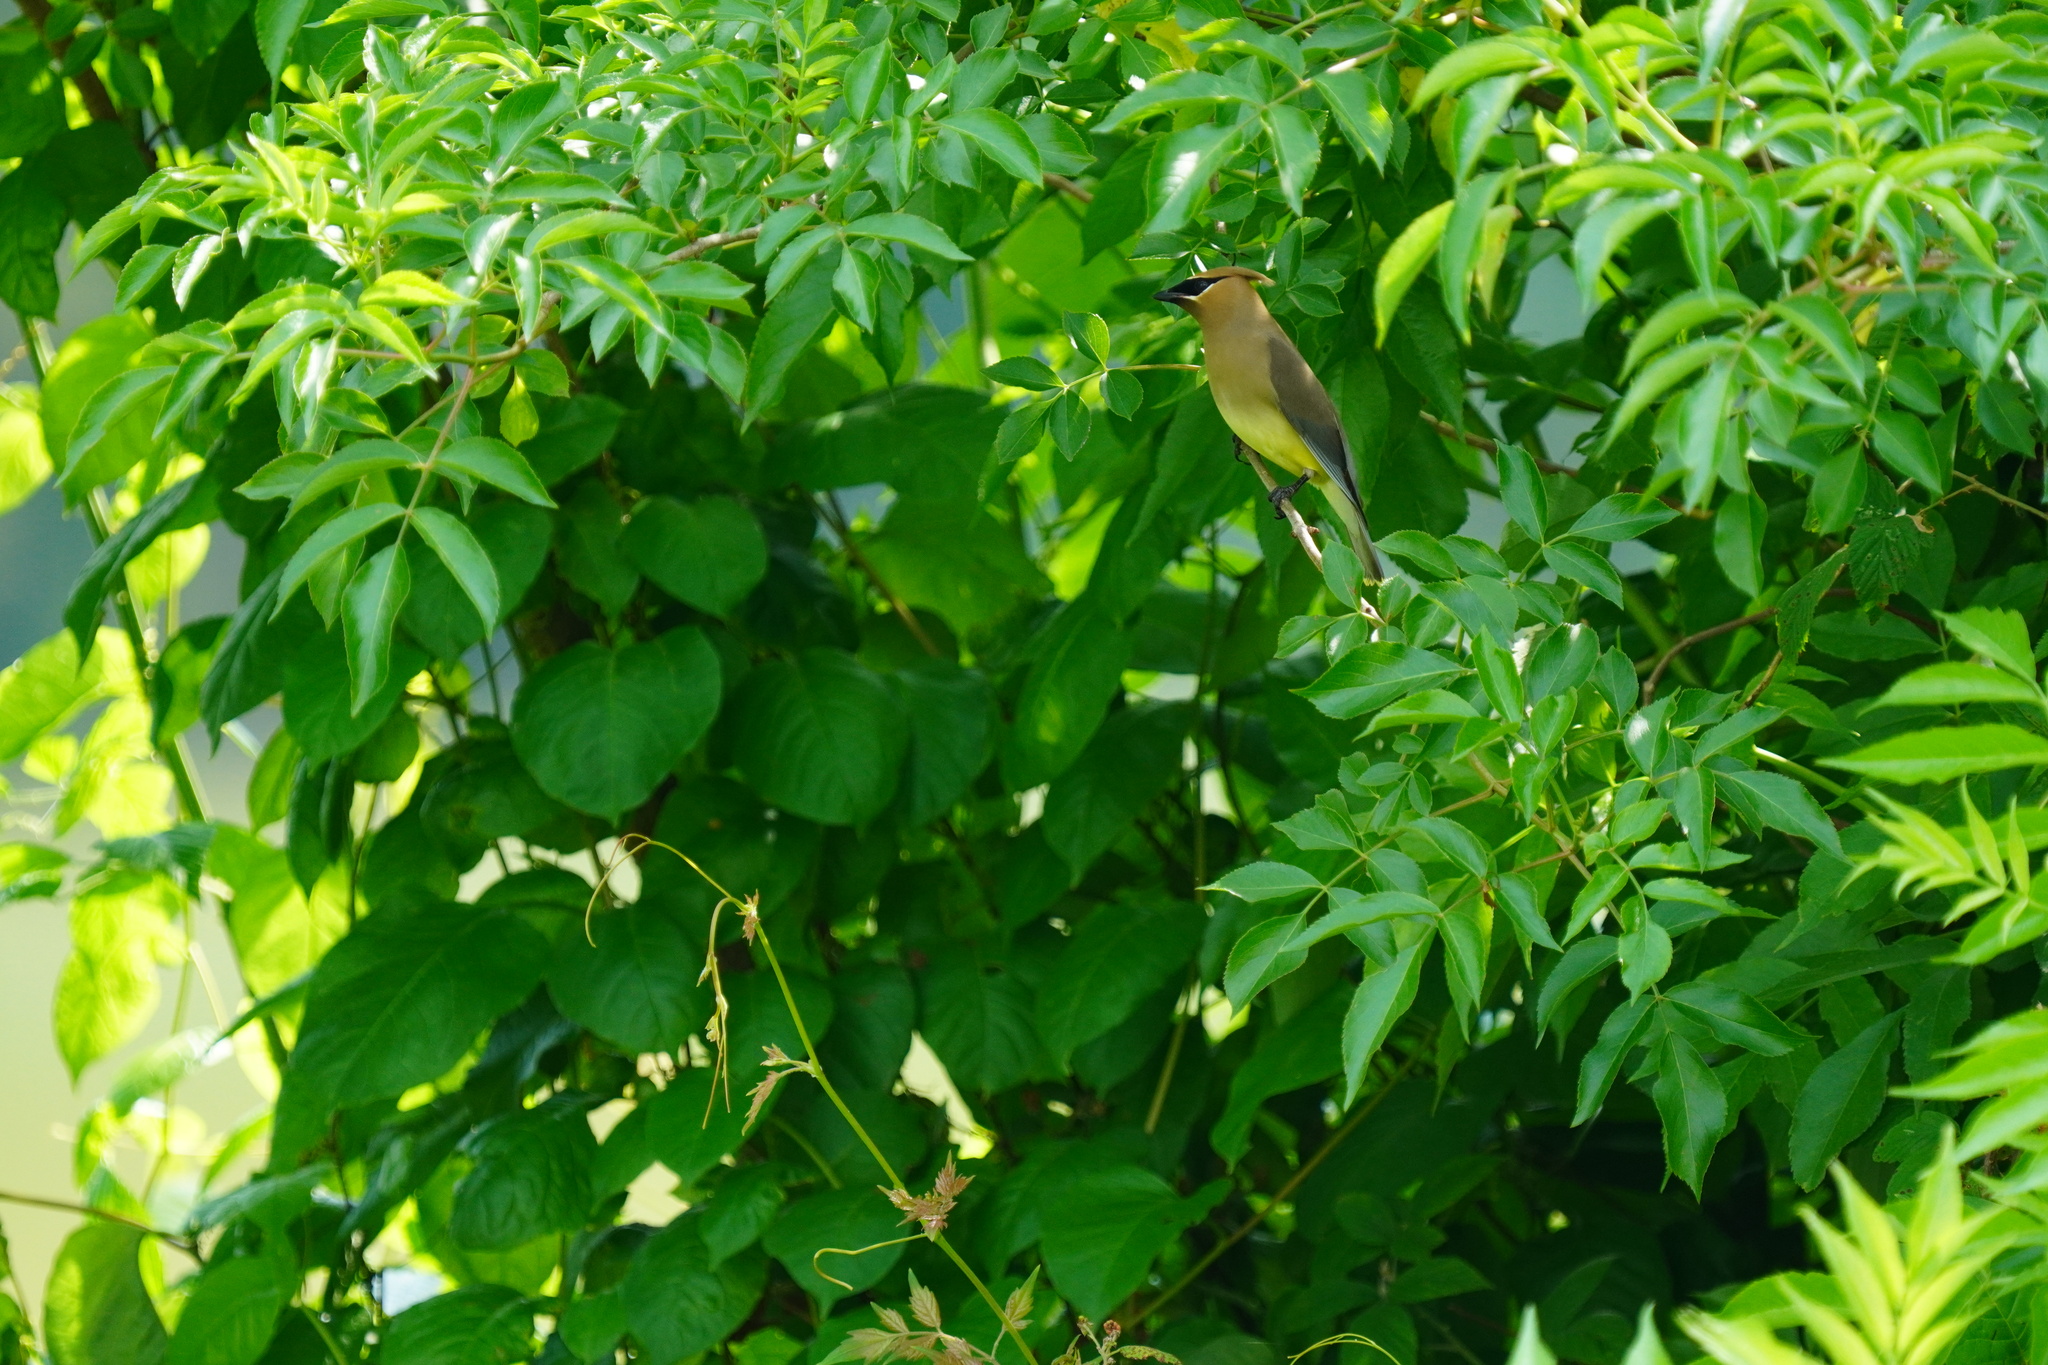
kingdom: Animalia
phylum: Chordata
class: Aves
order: Passeriformes
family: Bombycillidae
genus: Bombycilla
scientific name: Bombycilla cedrorum
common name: Cedar waxwing
